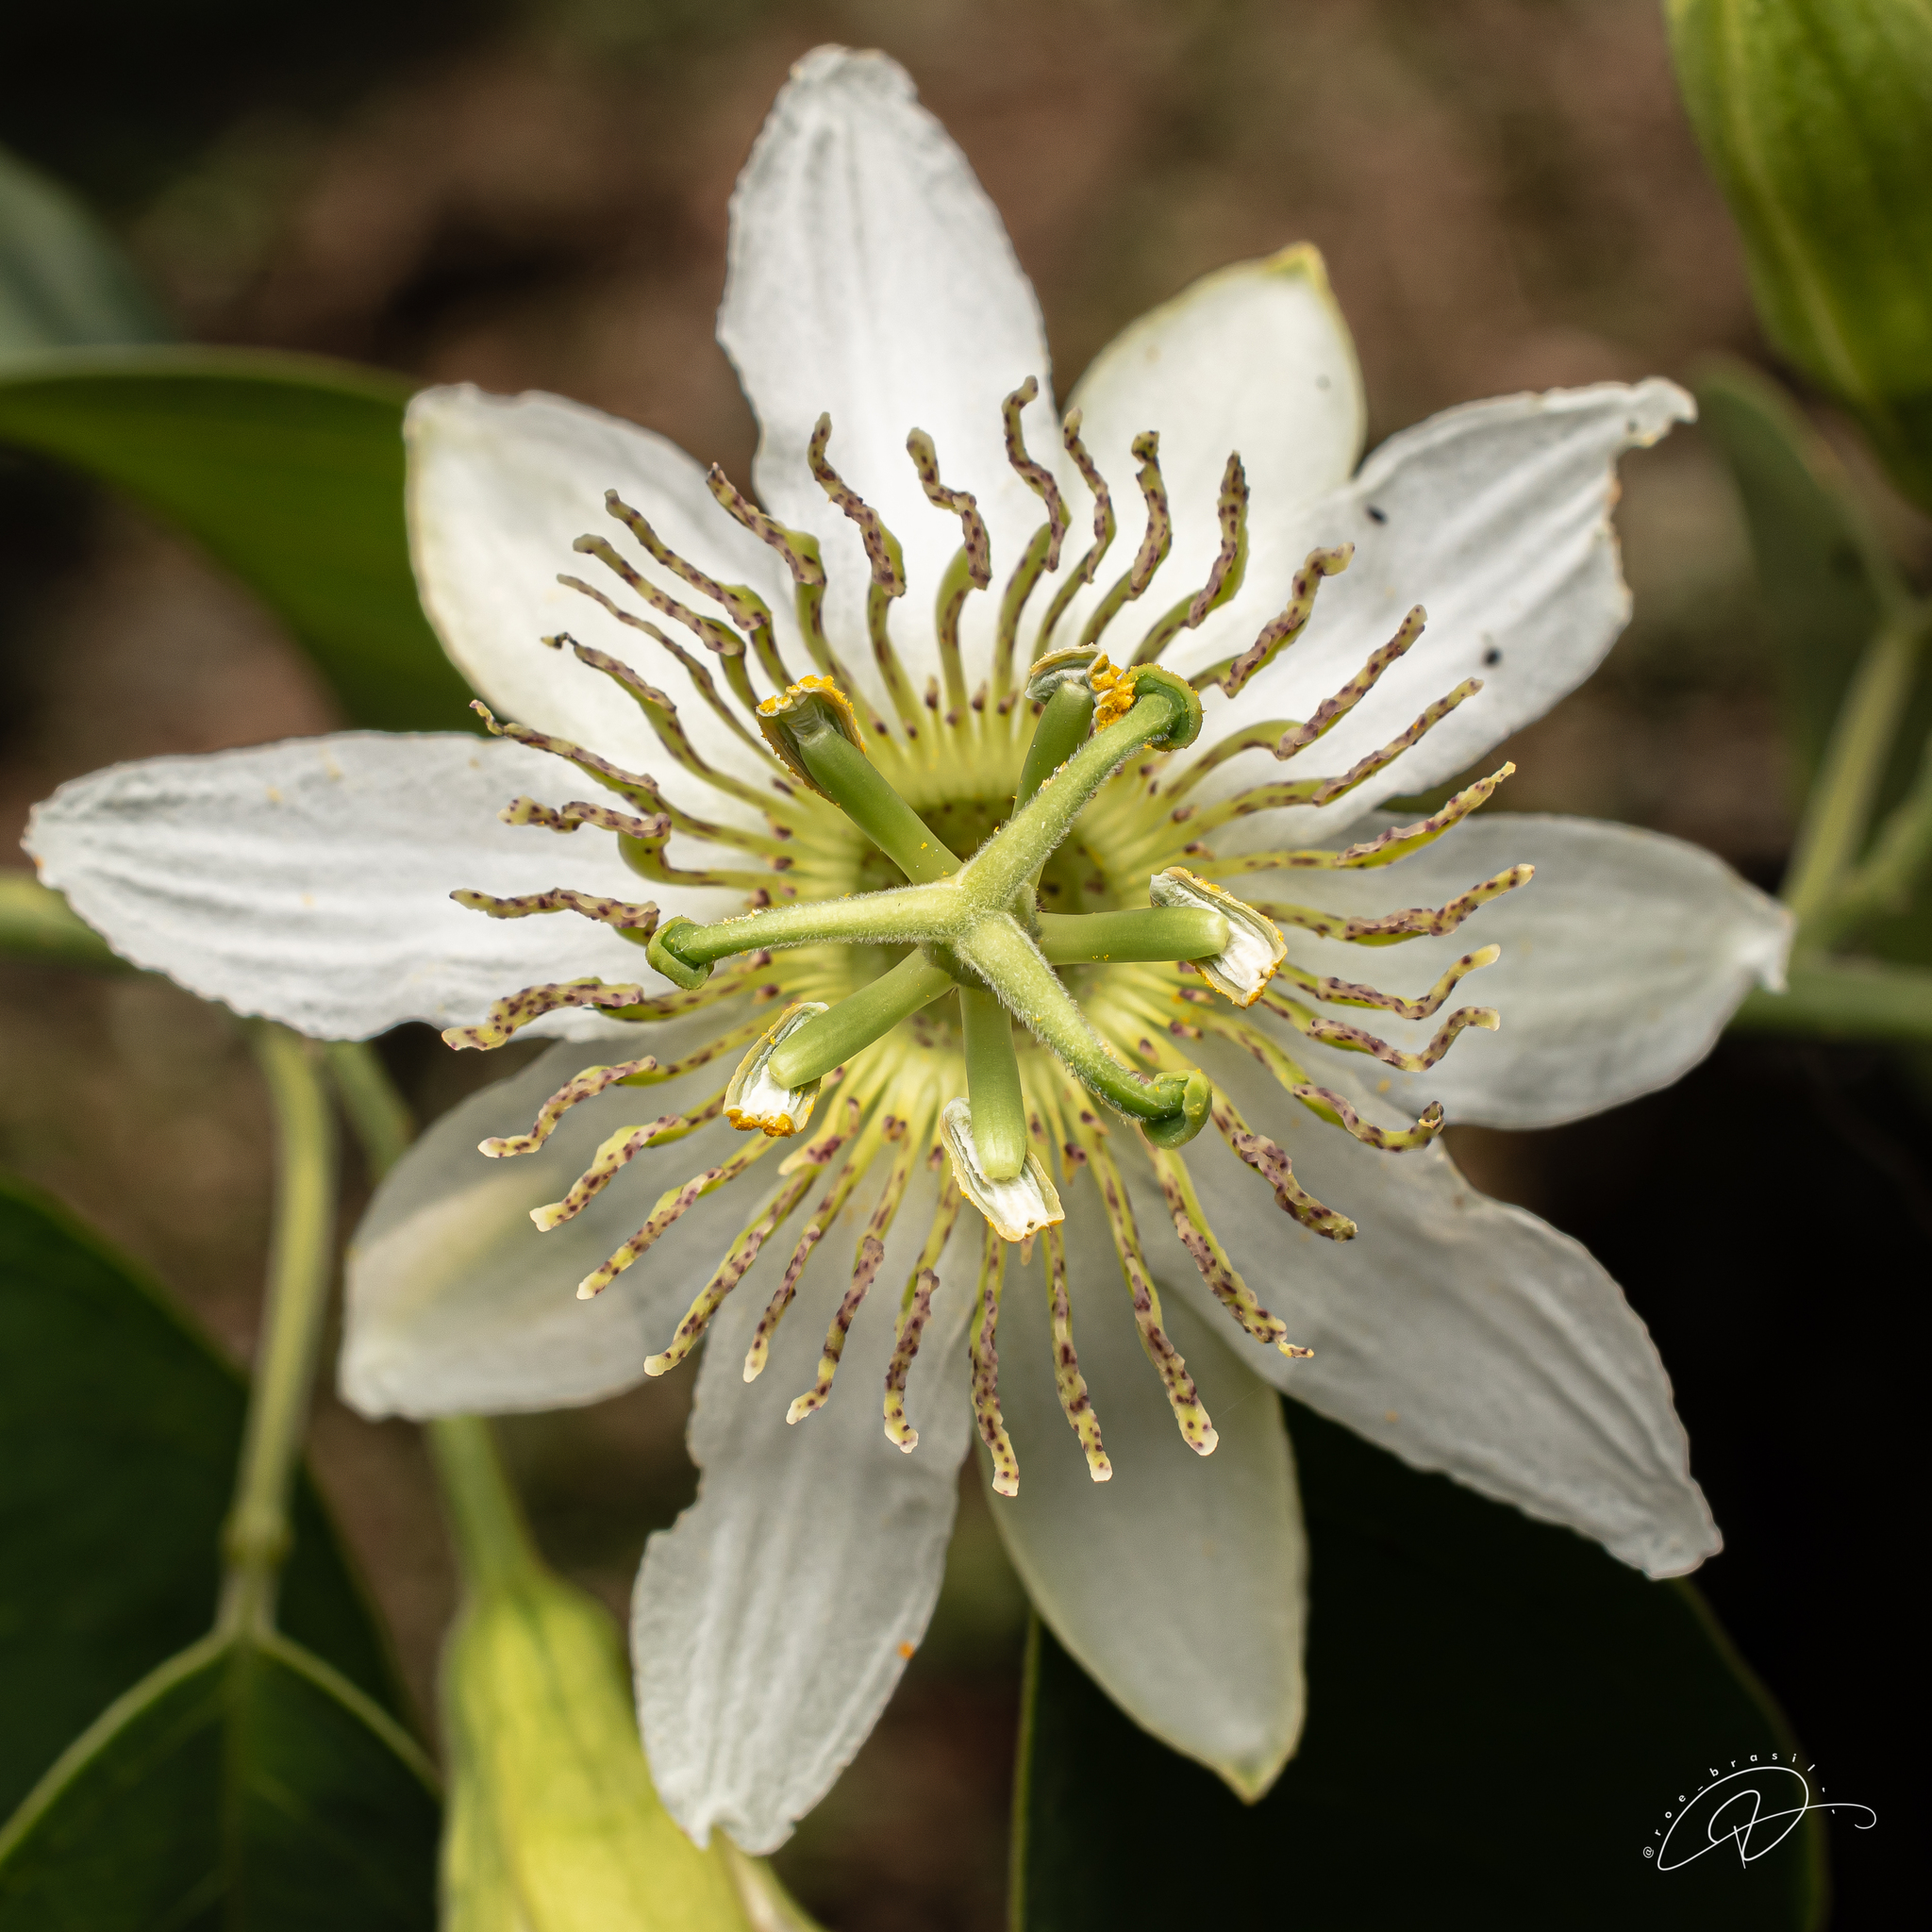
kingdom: Plantae
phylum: Tracheophyta
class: Magnoliopsida
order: Malpighiales
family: Passifloraceae
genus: Passiflora
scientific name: Passiflora haematostigma
